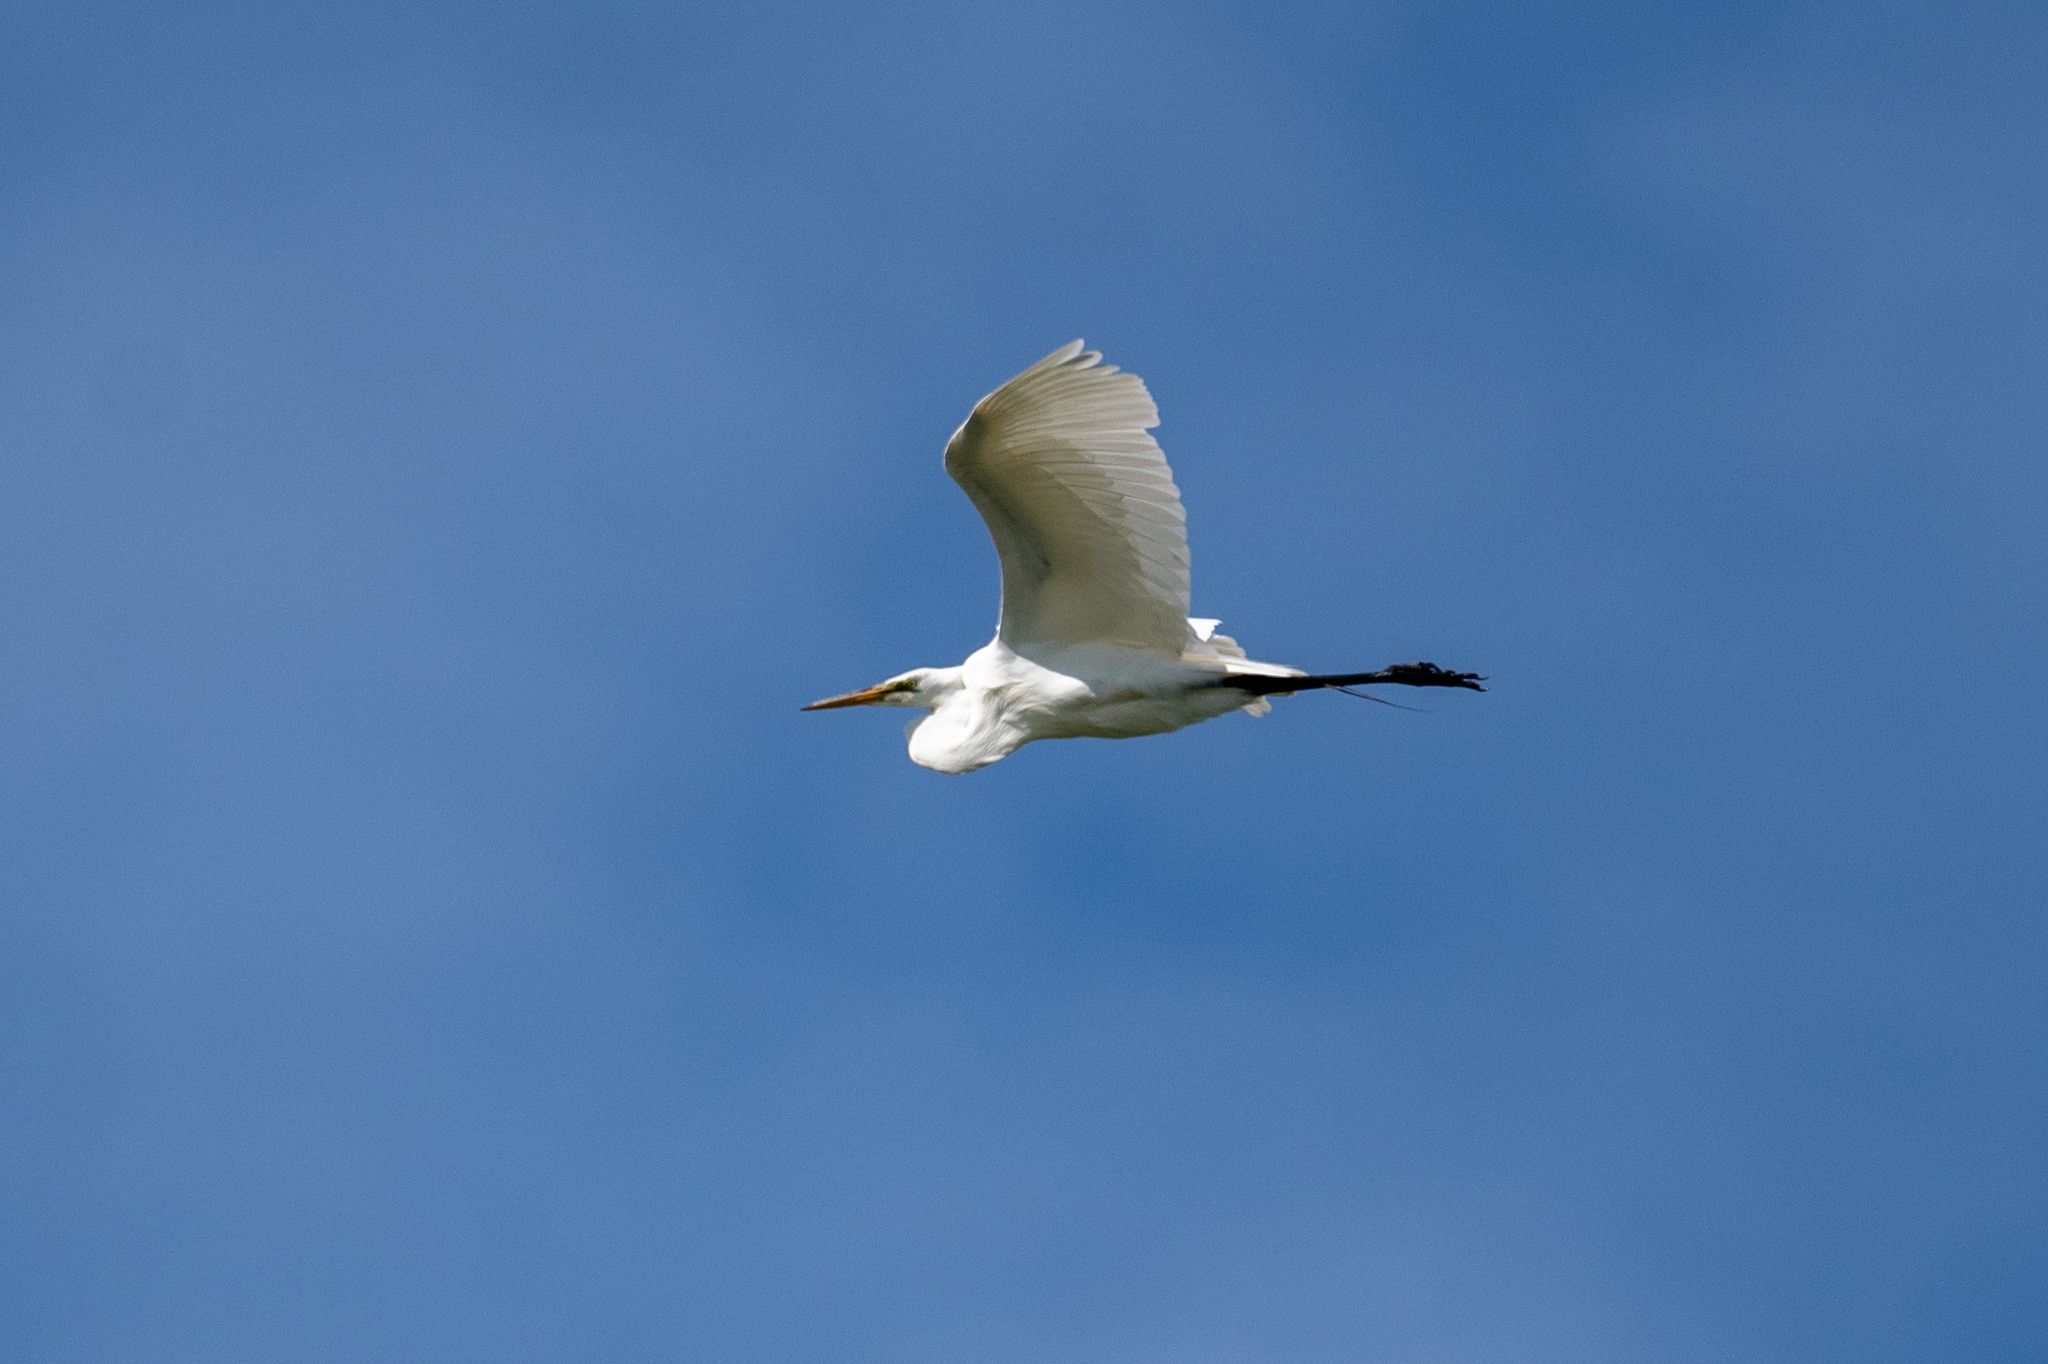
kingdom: Animalia
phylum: Chordata
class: Aves
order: Pelecaniformes
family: Ardeidae
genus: Ardea
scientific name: Ardea alba
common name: Great egret
